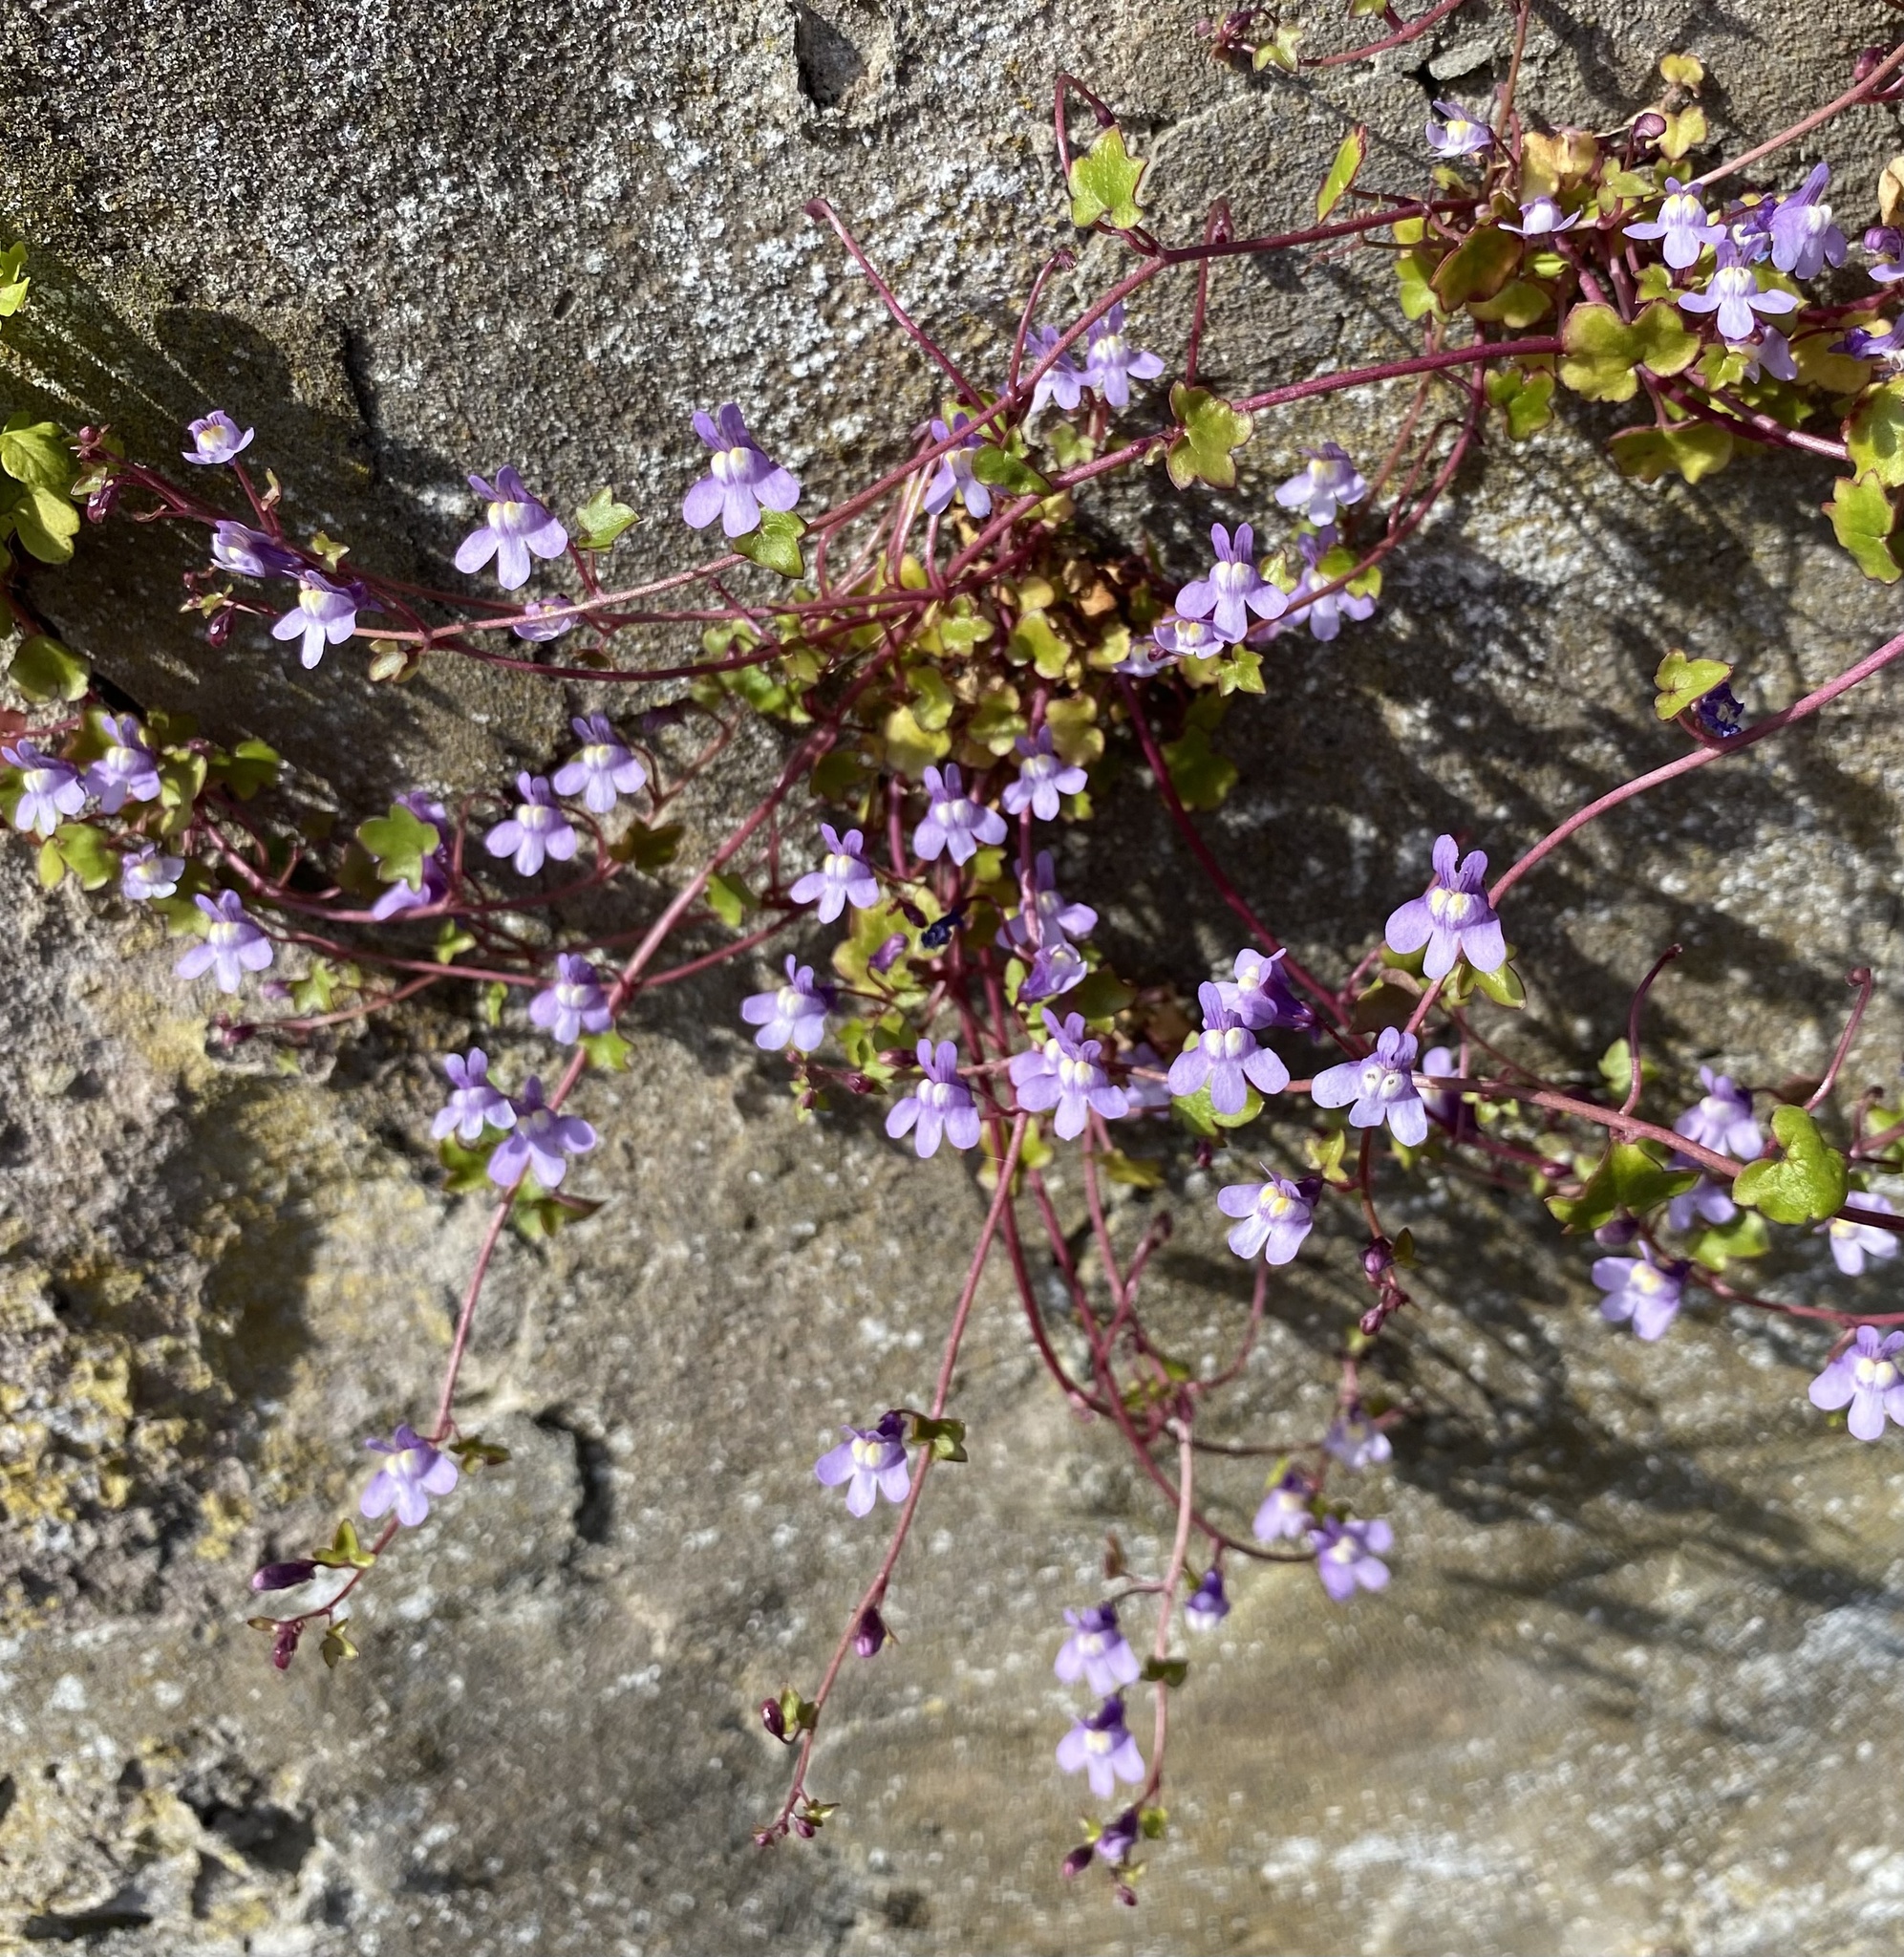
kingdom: Plantae
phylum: Tracheophyta
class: Magnoliopsida
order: Lamiales
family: Plantaginaceae
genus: Cymbalaria
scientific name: Cymbalaria muralis
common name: Ivy-leaved toadflax
